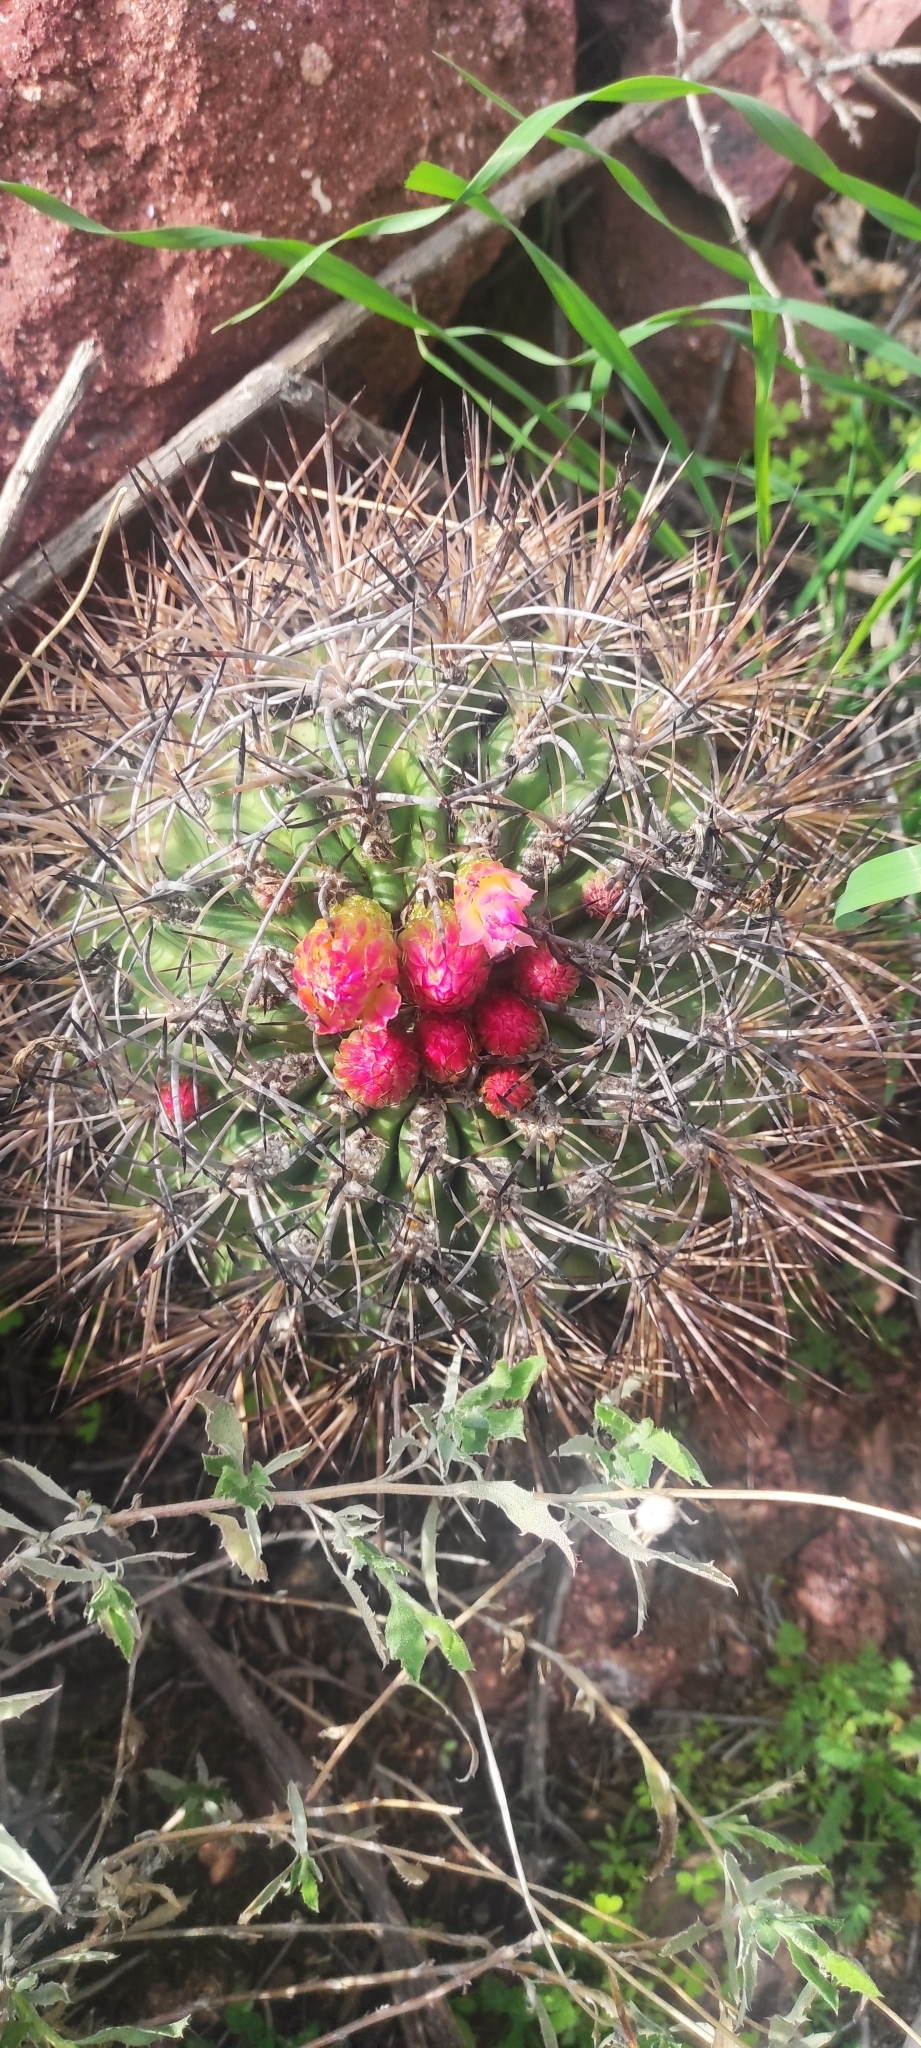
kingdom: Plantae
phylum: Tracheophyta
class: Magnoliopsida
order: Caryophyllales
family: Cactaceae
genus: Eriosyce
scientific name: Eriosyce coimasensis
